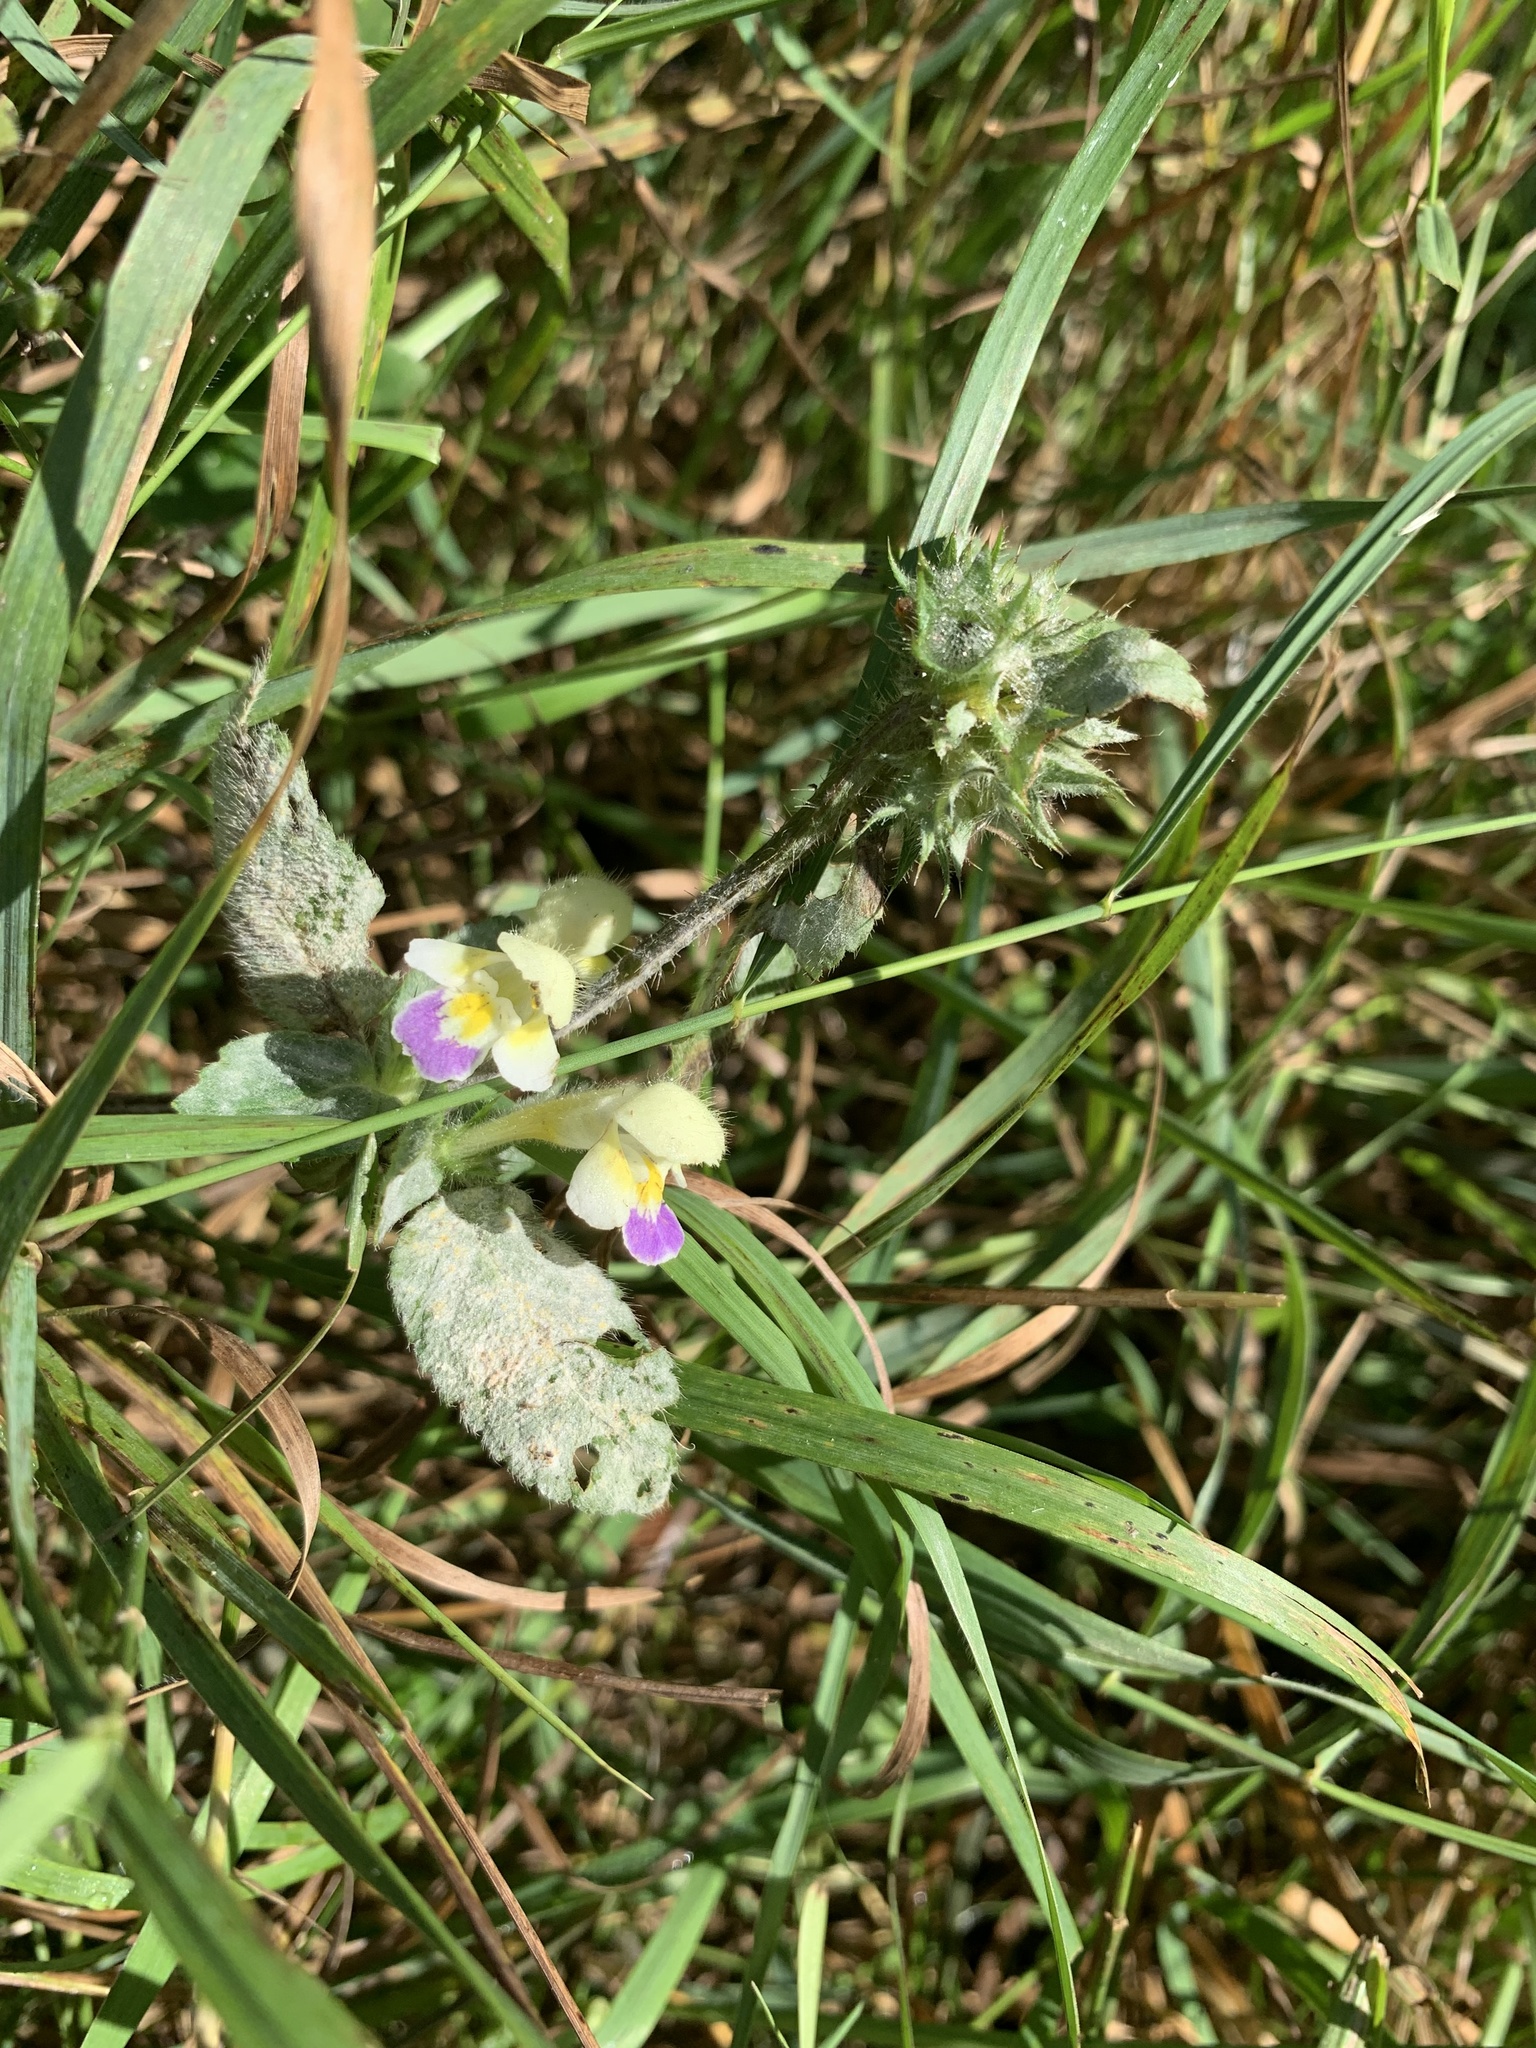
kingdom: Plantae
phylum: Tracheophyta
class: Magnoliopsida
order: Lamiales
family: Lamiaceae
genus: Galeopsis
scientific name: Galeopsis speciosa
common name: Large-flowered hemp-nettle
